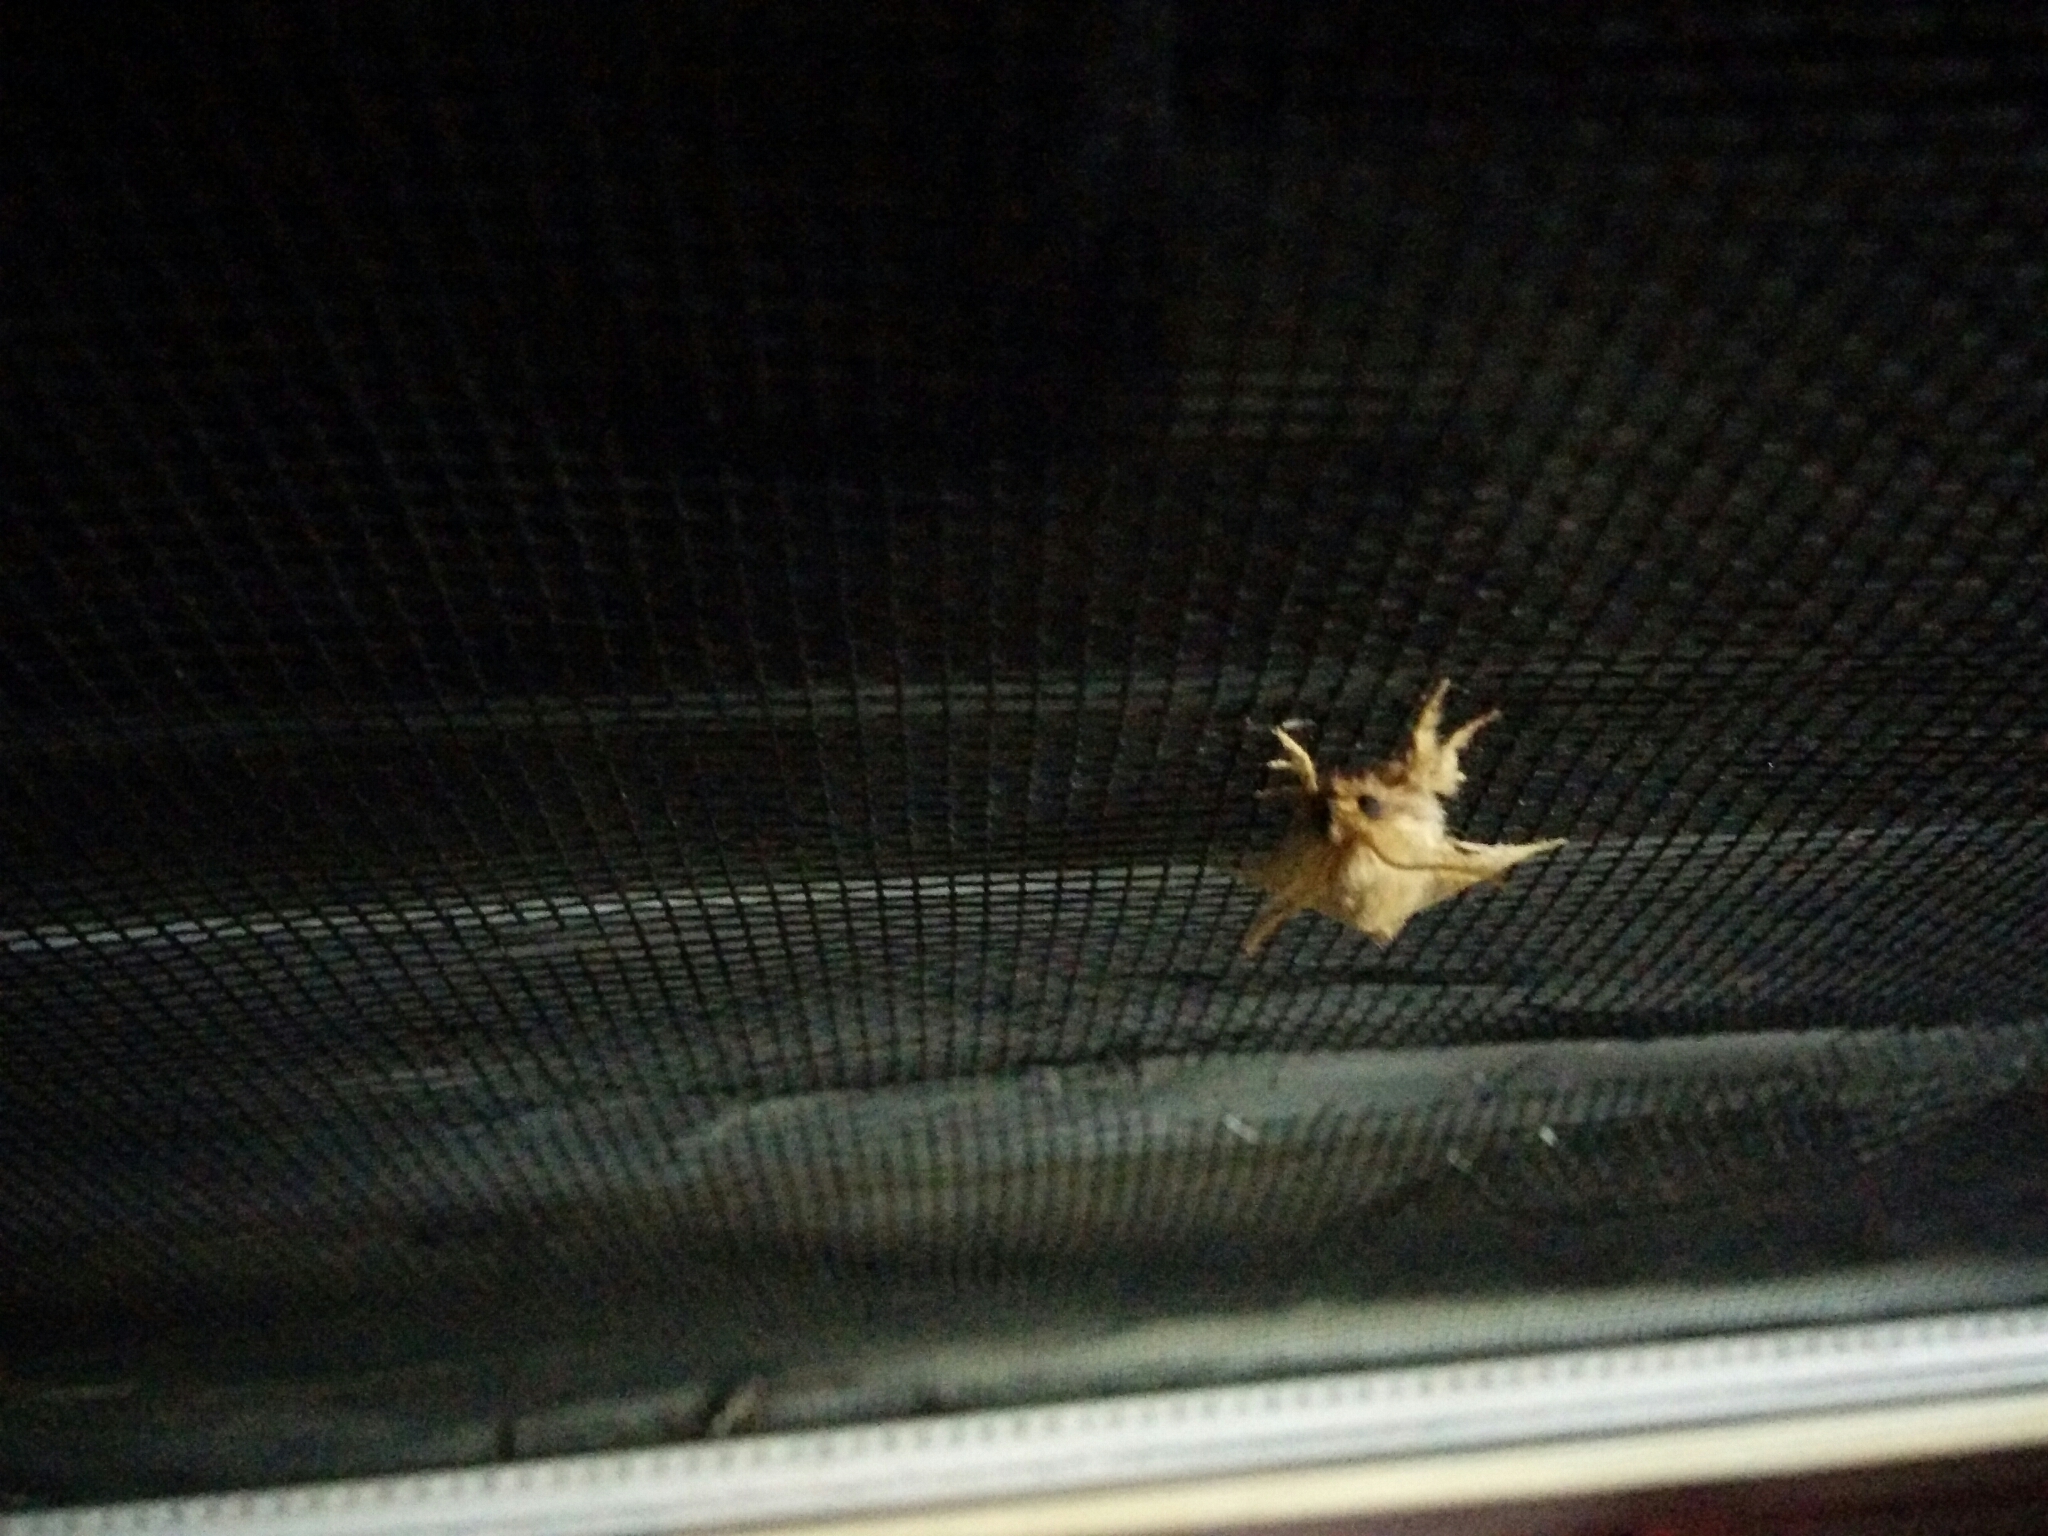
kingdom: Animalia
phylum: Arthropoda
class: Insecta
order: Lepidoptera
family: Lasiocampidae
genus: Malacosoma
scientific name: Malacosoma disstria
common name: Forest tent caterpillar
